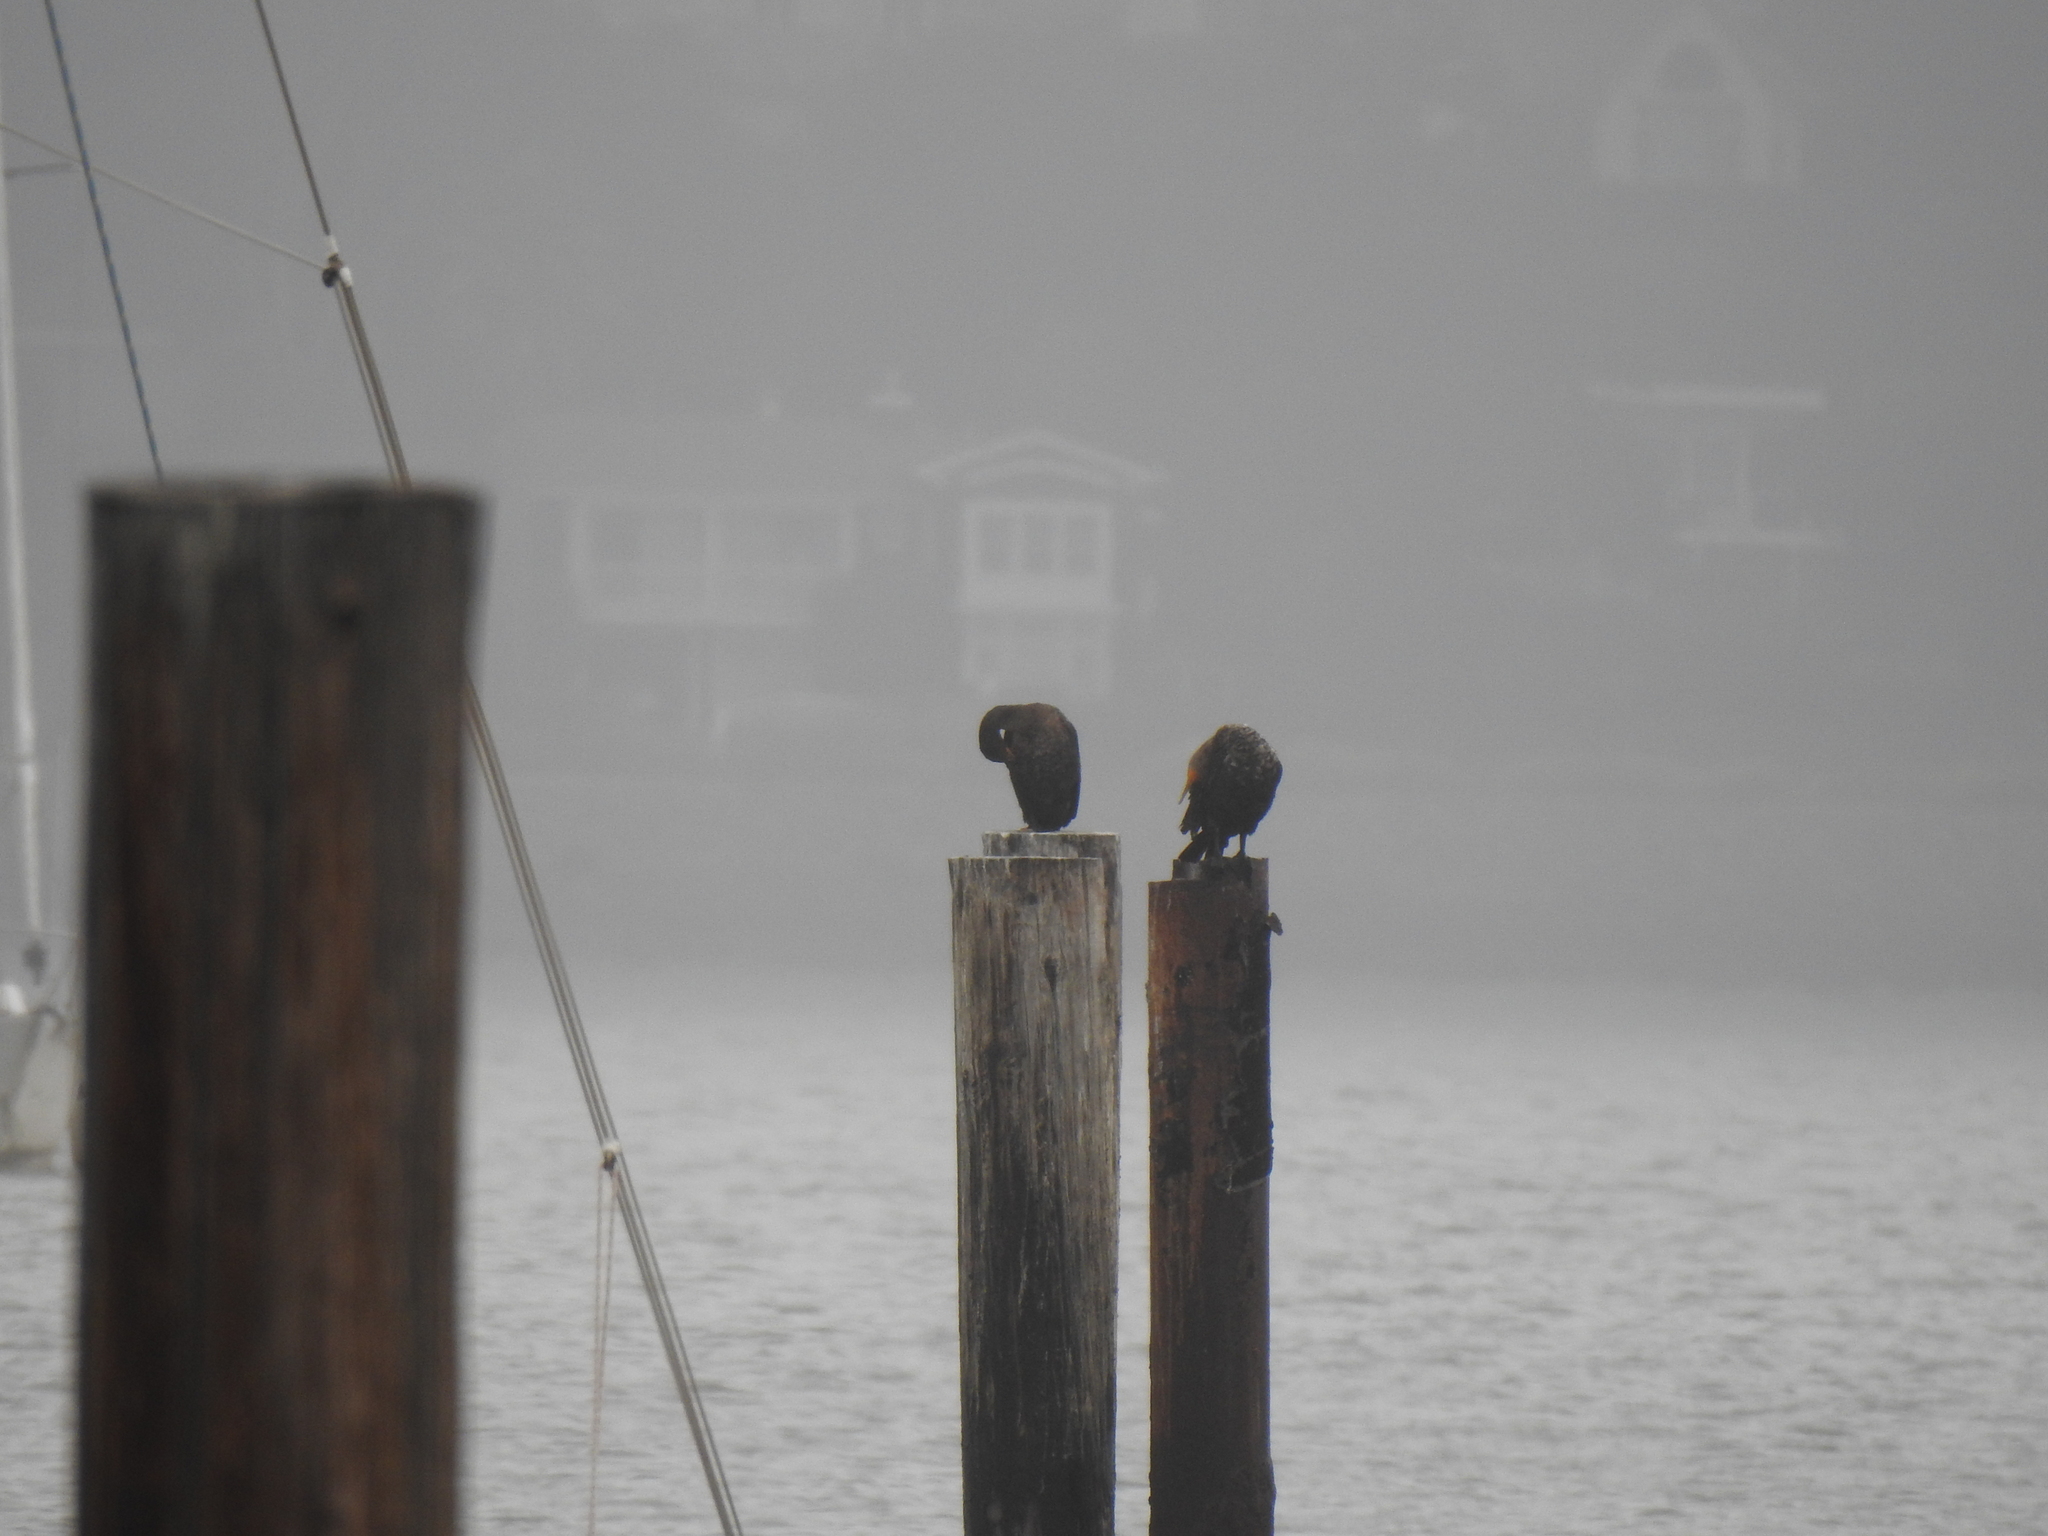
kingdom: Animalia
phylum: Chordata
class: Aves
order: Suliformes
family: Phalacrocoracidae
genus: Phalacrocorax
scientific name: Phalacrocorax auritus
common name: Double-crested cormorant
